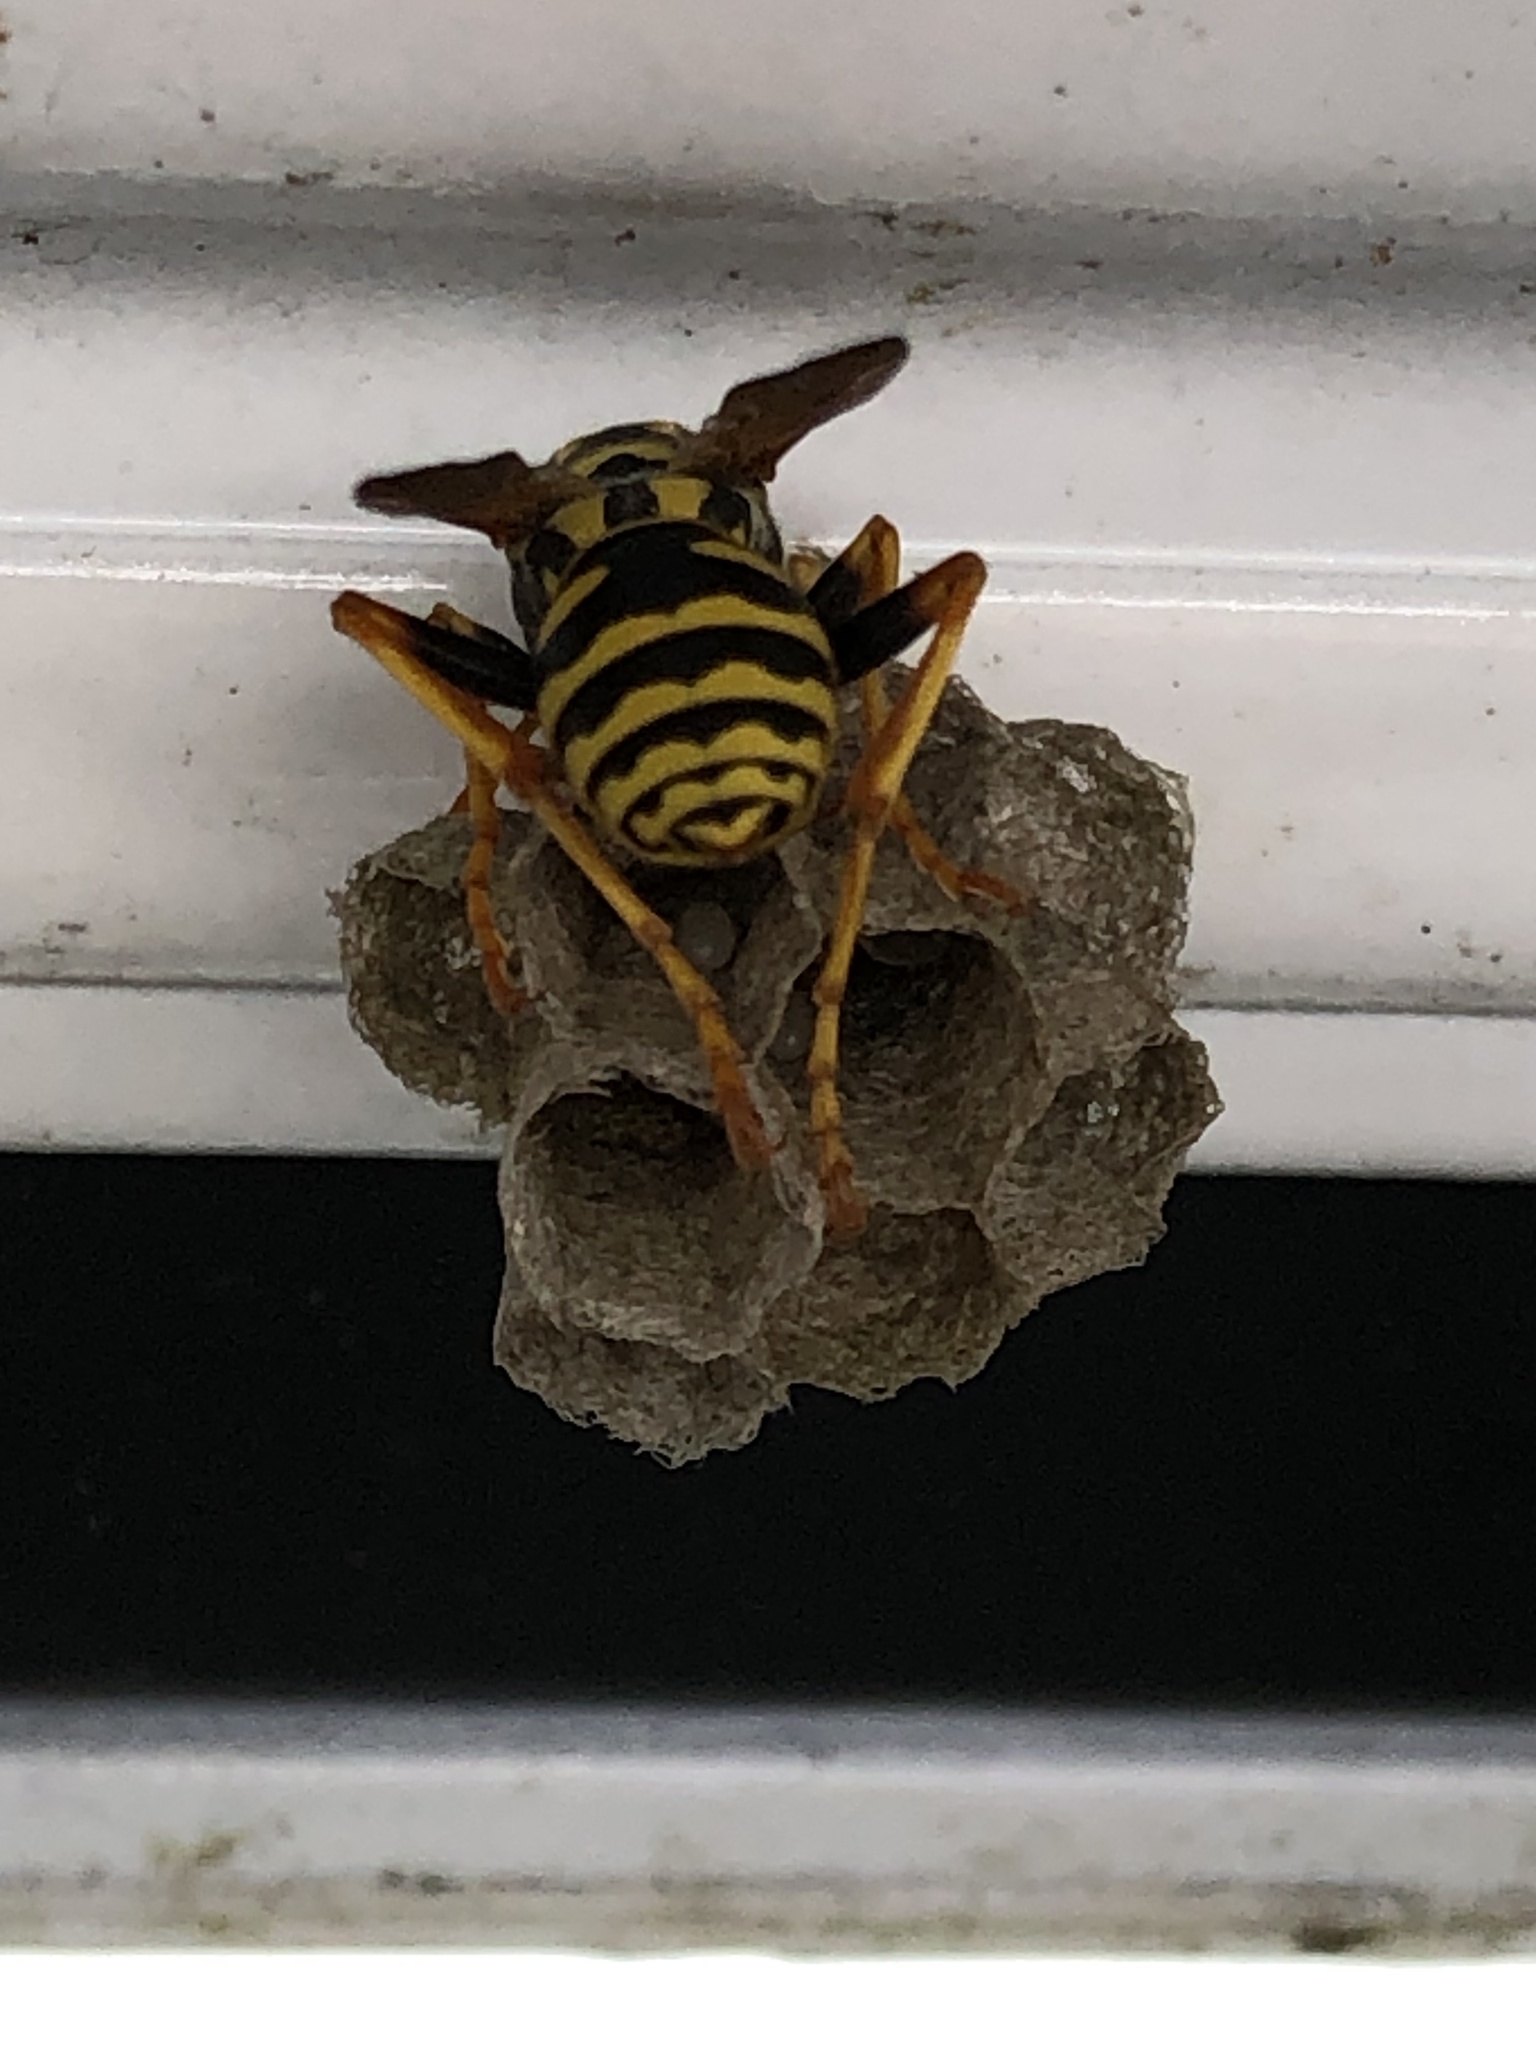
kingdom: Animalia
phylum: Arthropoda
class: Insecta
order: Hymenoptera
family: Eumenidae
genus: Polistes
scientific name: Polistes dominula
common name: Paper wasp
